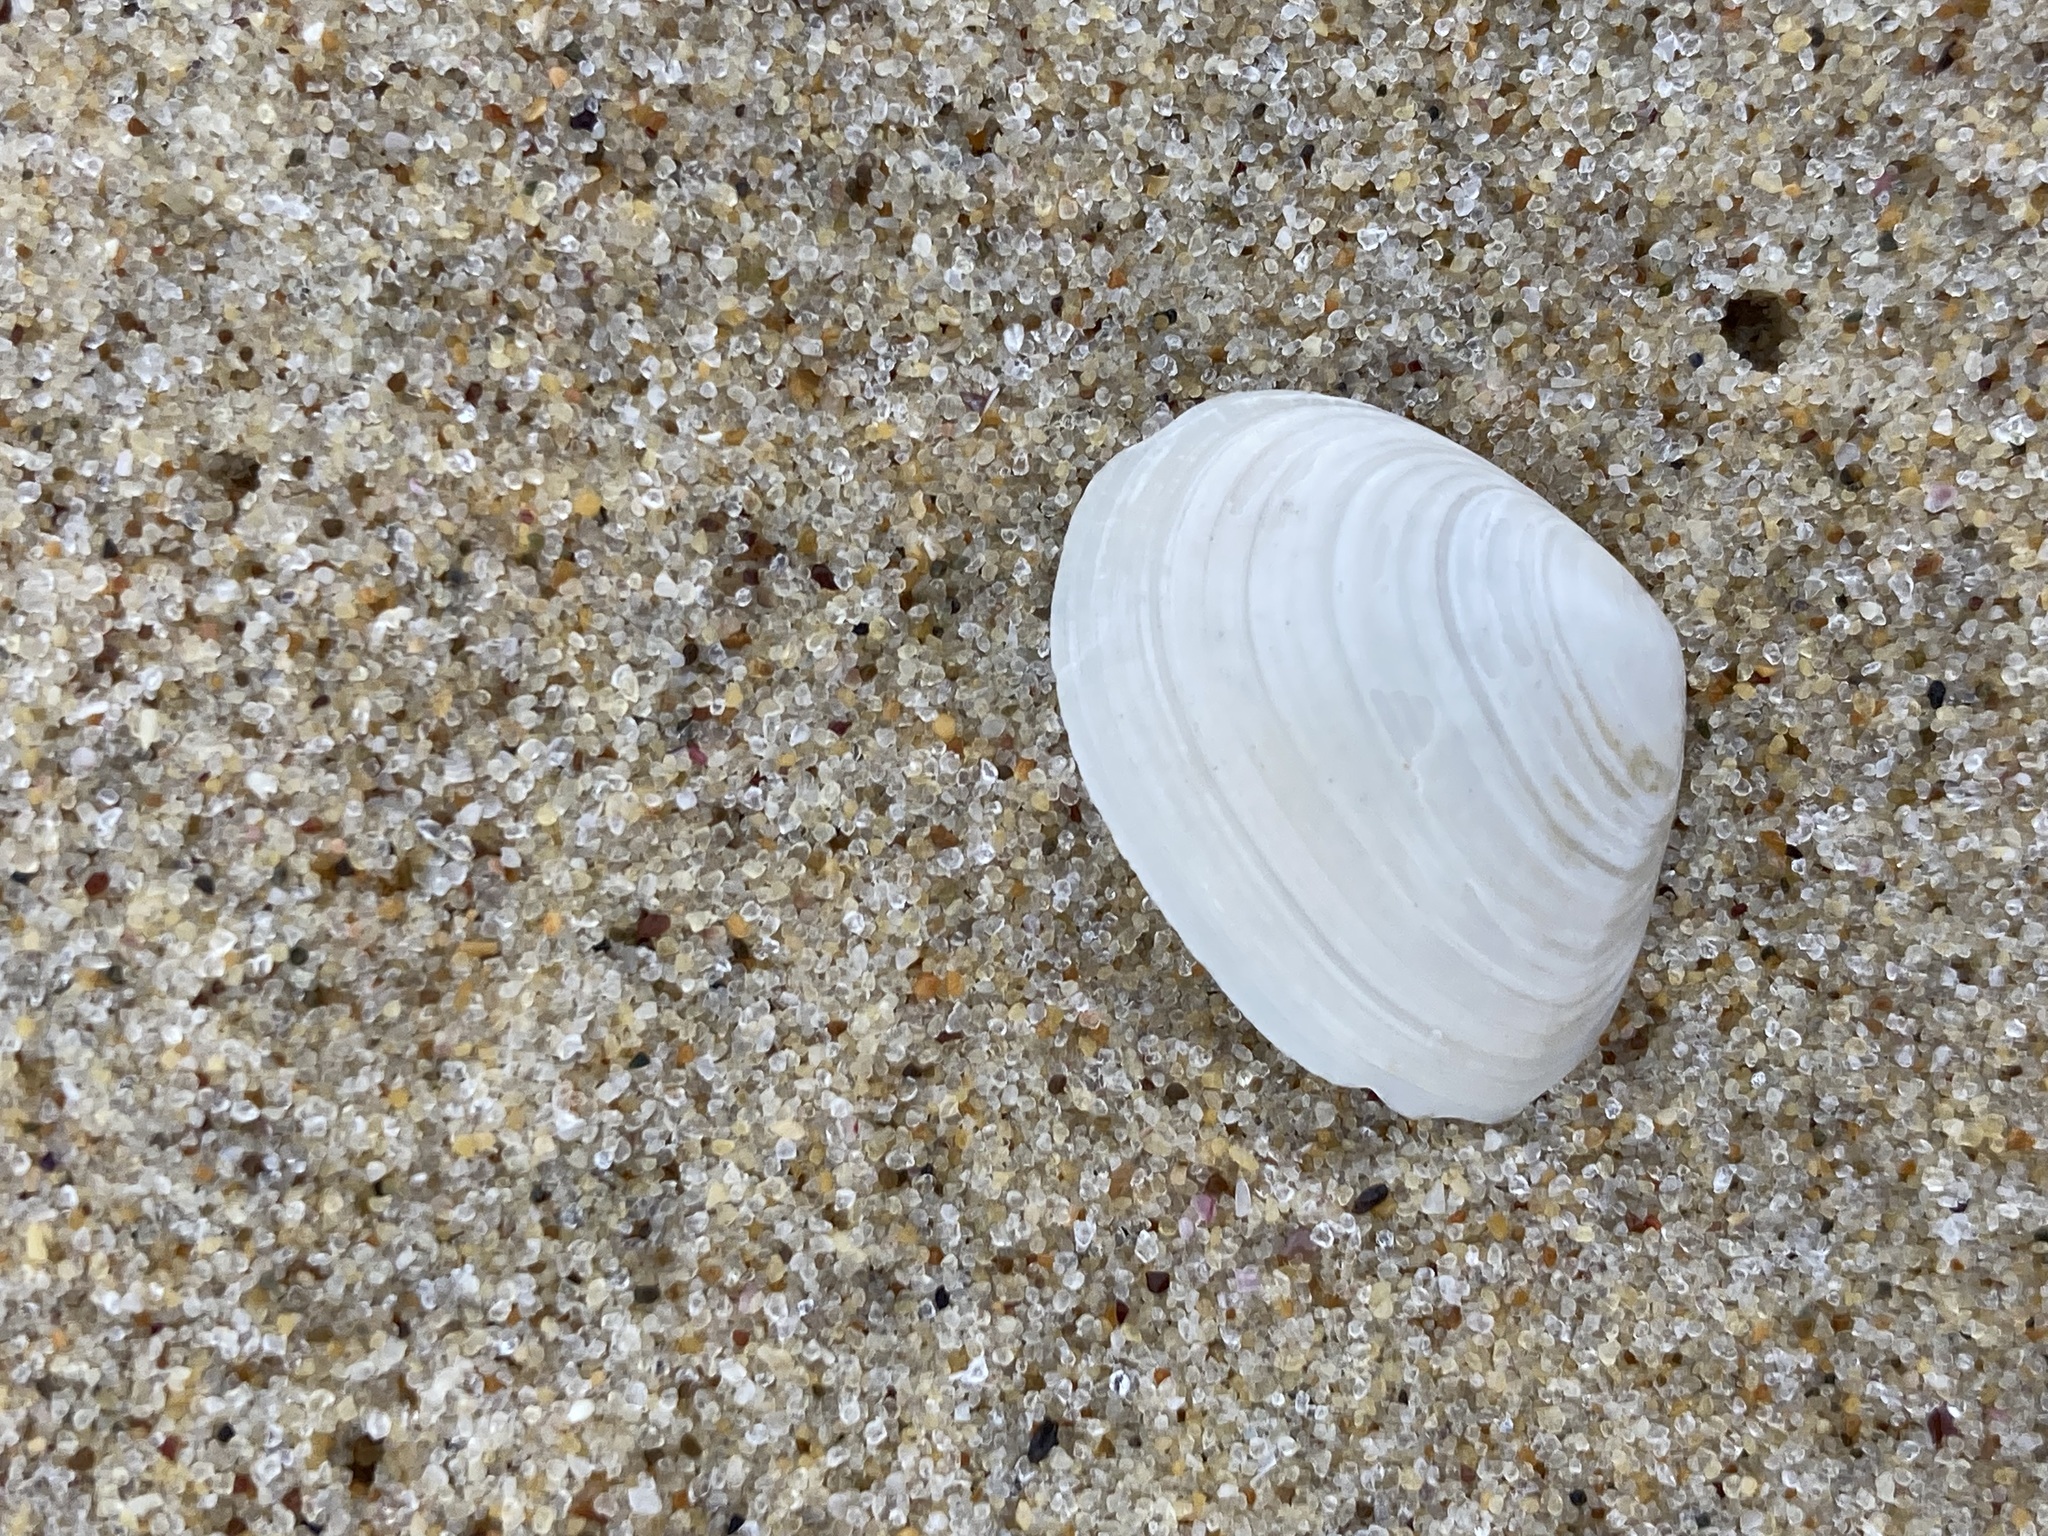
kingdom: Animalia
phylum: Mollusca
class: Bivalvia
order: Cardiida
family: Tellinidae
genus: Macomona
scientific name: Macomona deltoidalis
